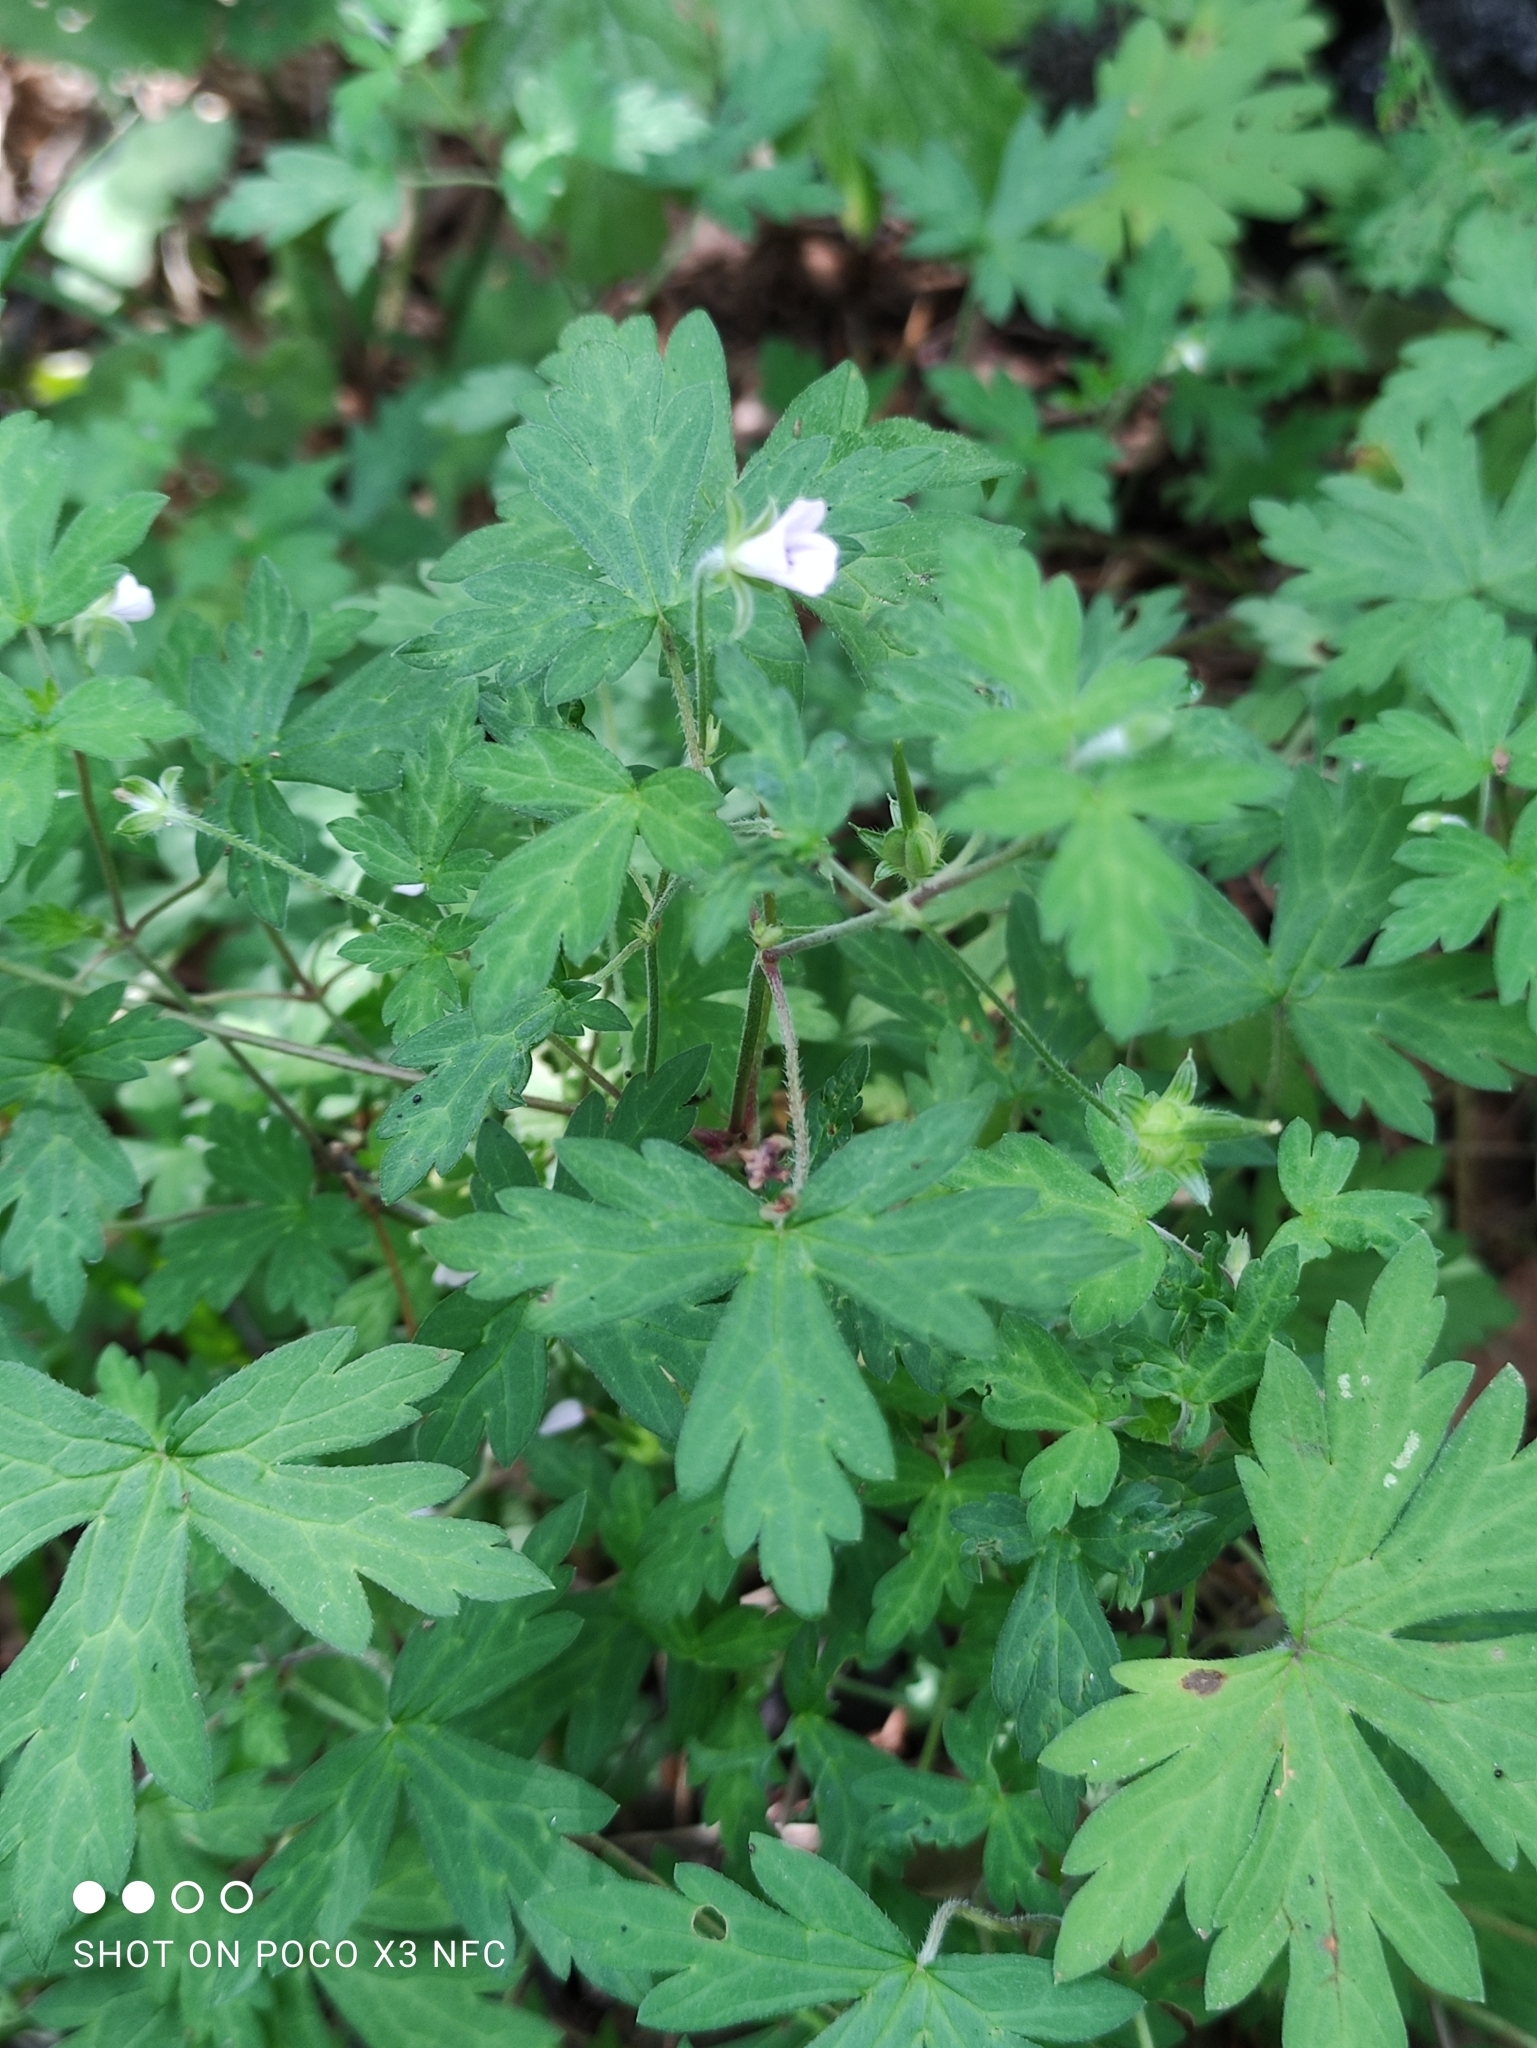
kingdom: Plantae
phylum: Tracheophyta
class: Magnoliopsida
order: Geraniales
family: Geraniaceae
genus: Geranium
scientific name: Geranium sibiricum
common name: Siberian crane's-bill
